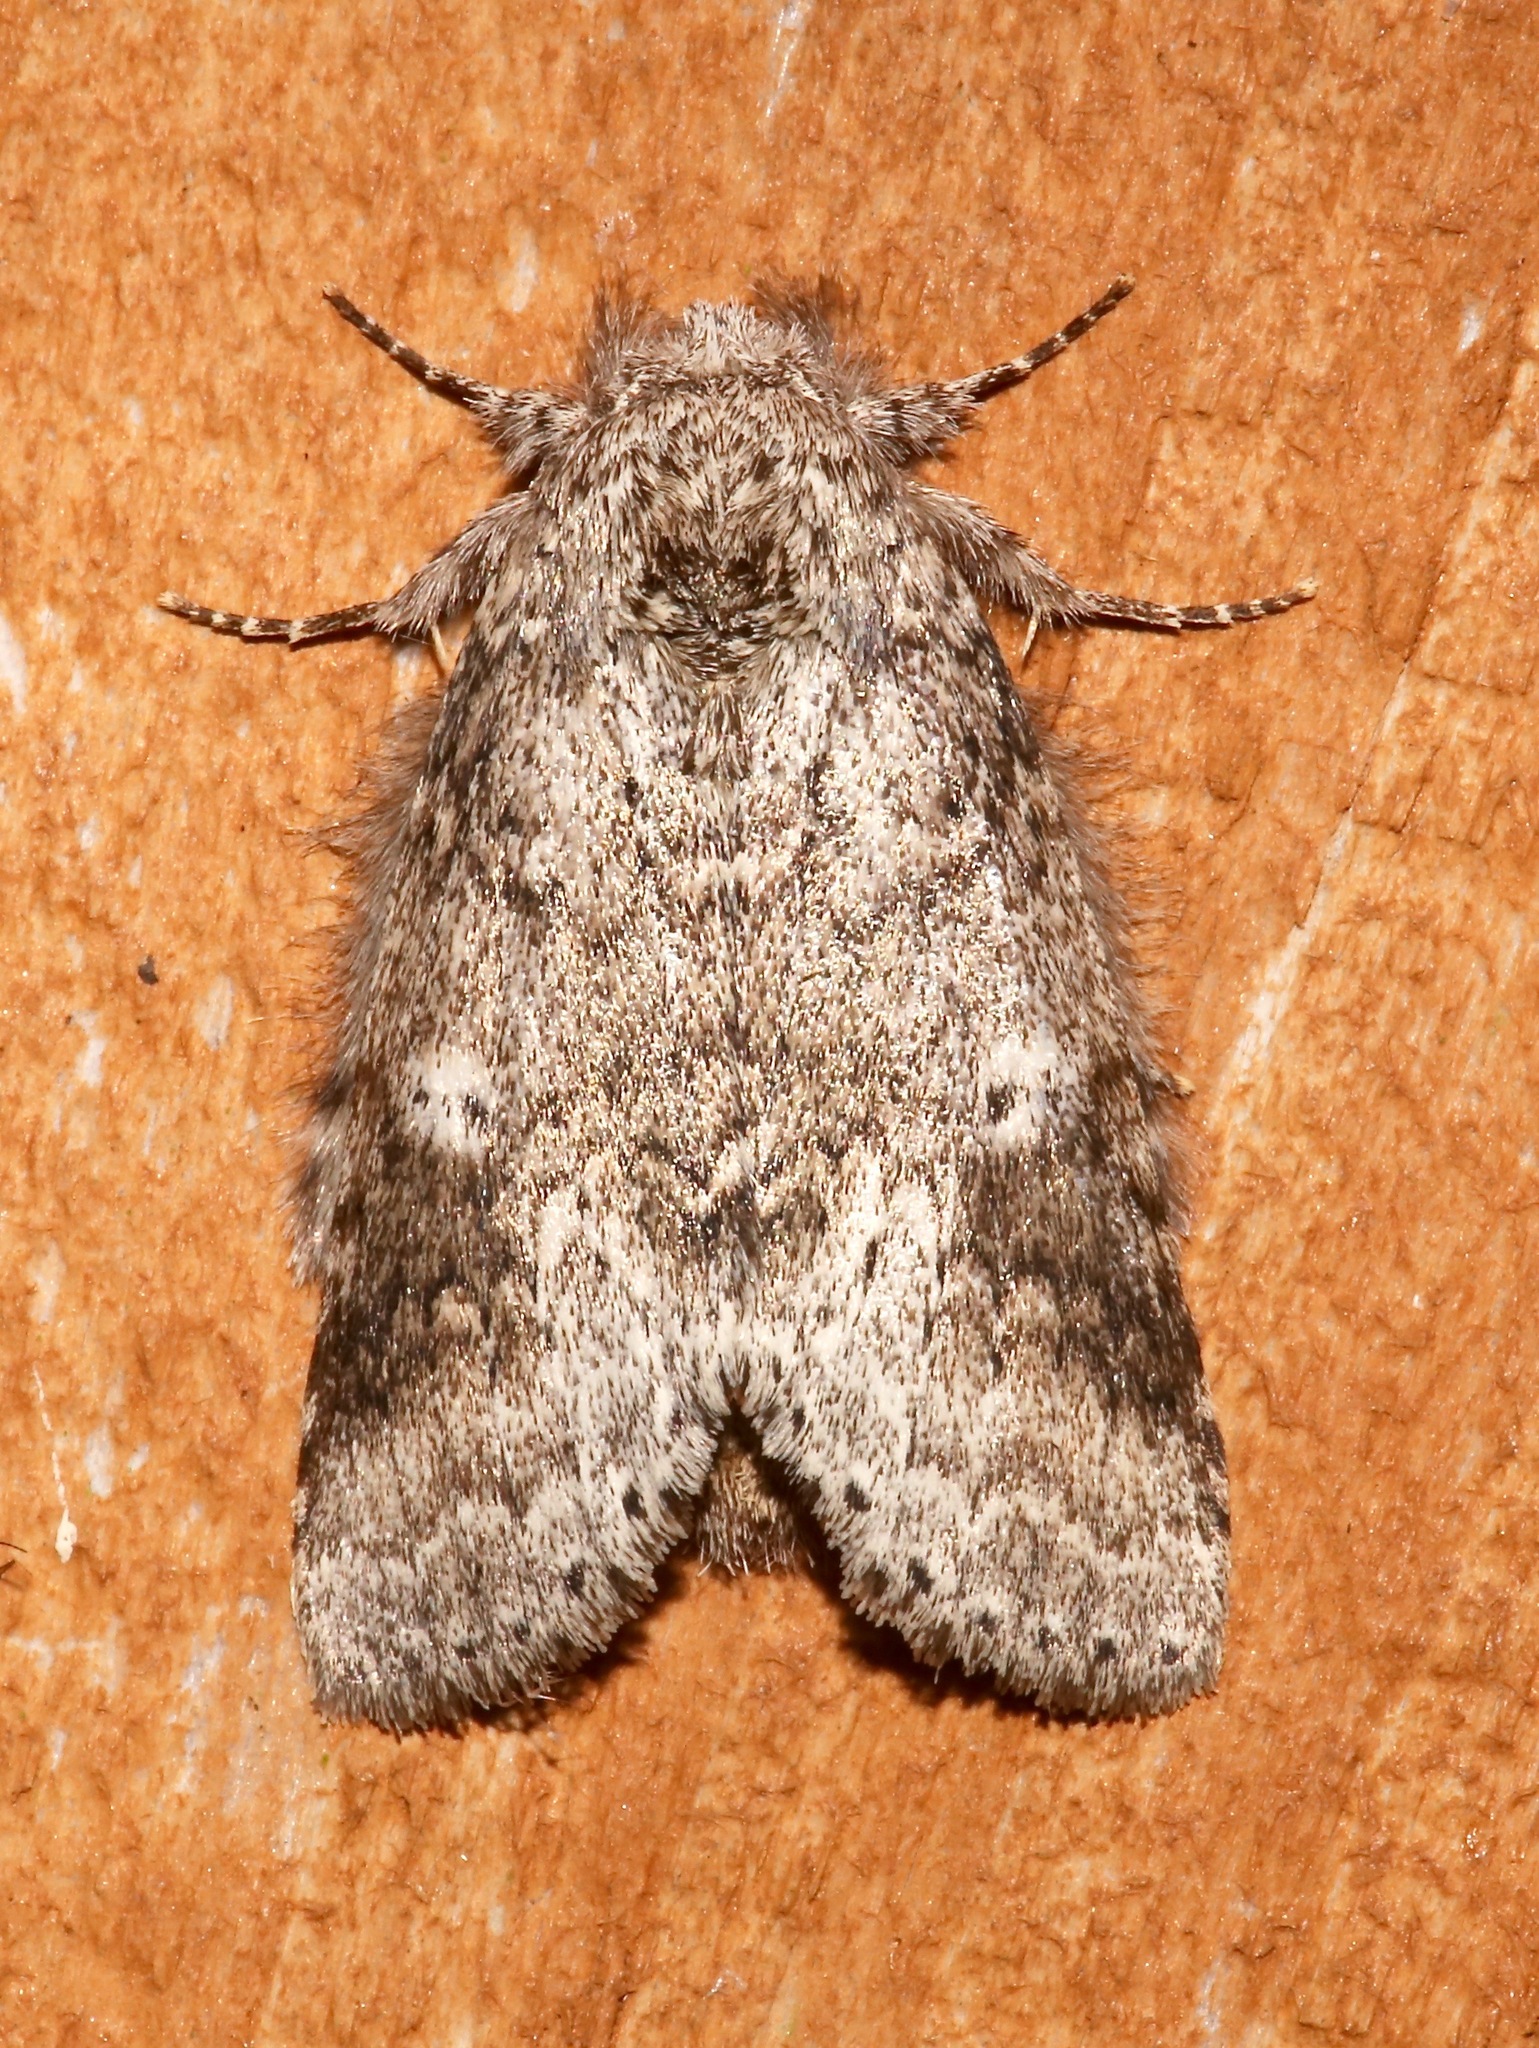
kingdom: Animalia
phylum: Arthropoda
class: Insecta
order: Lepidoptera
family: Notodontidae
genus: Lochmaeus
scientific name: Lochmaeus manteo
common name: Variable oakleaf caterpillar moth
